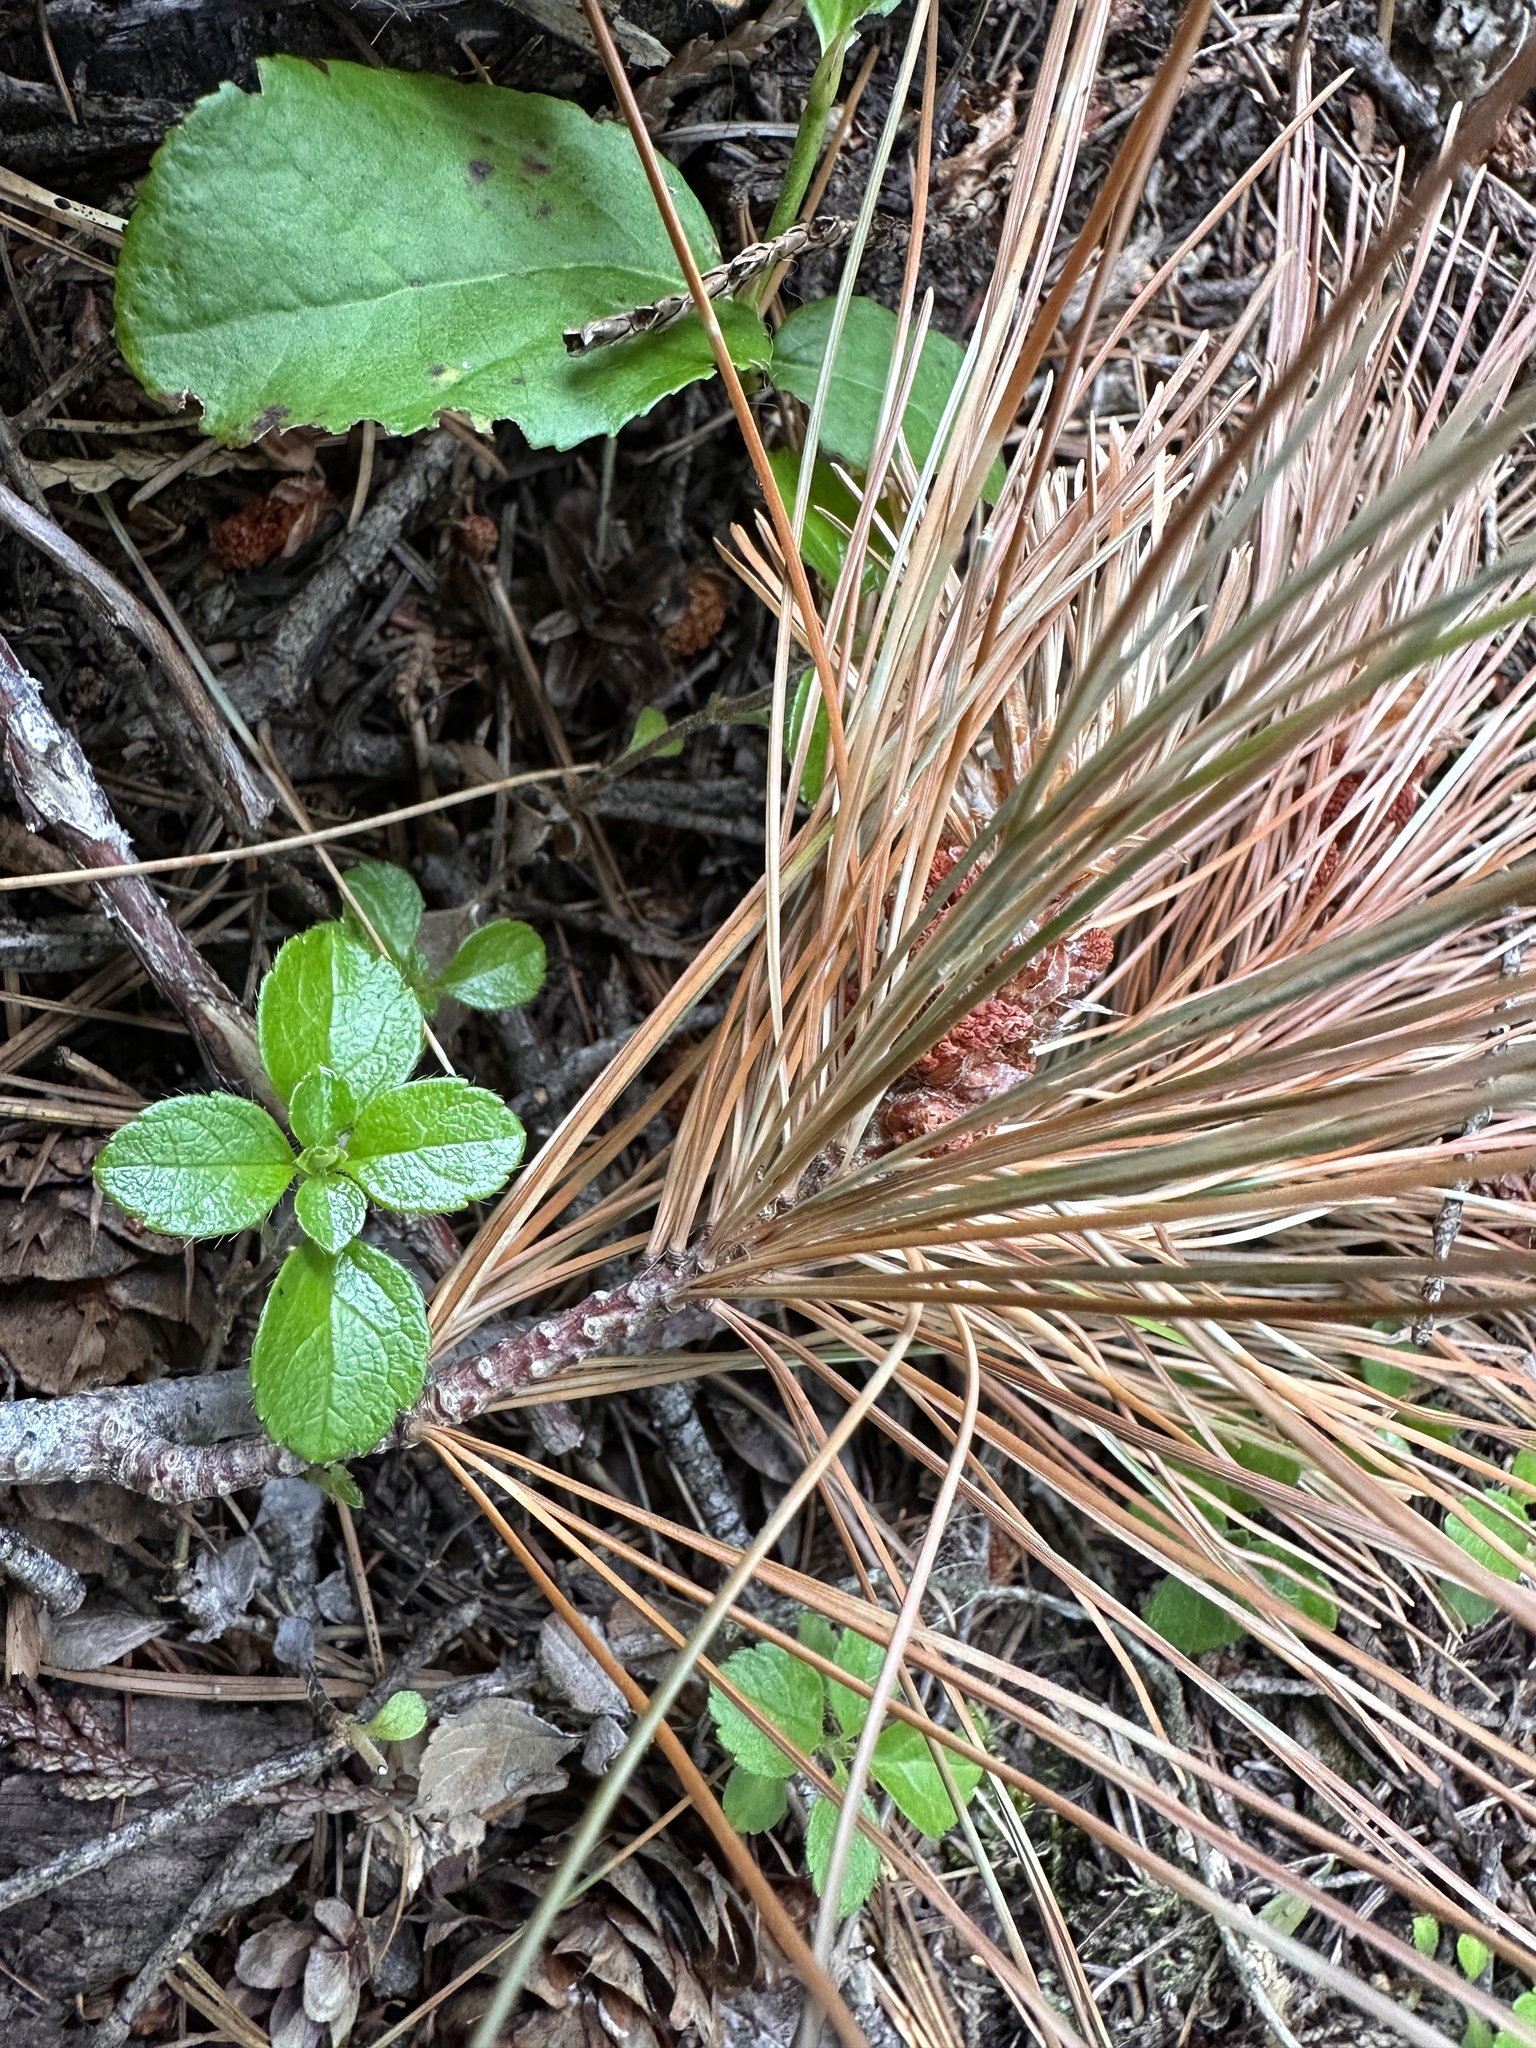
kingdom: Plantae
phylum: Tracheophyta
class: Pinopsida
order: Pinales
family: Pinaceae
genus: Pinus
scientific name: Pinus monticola
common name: Western white pine
